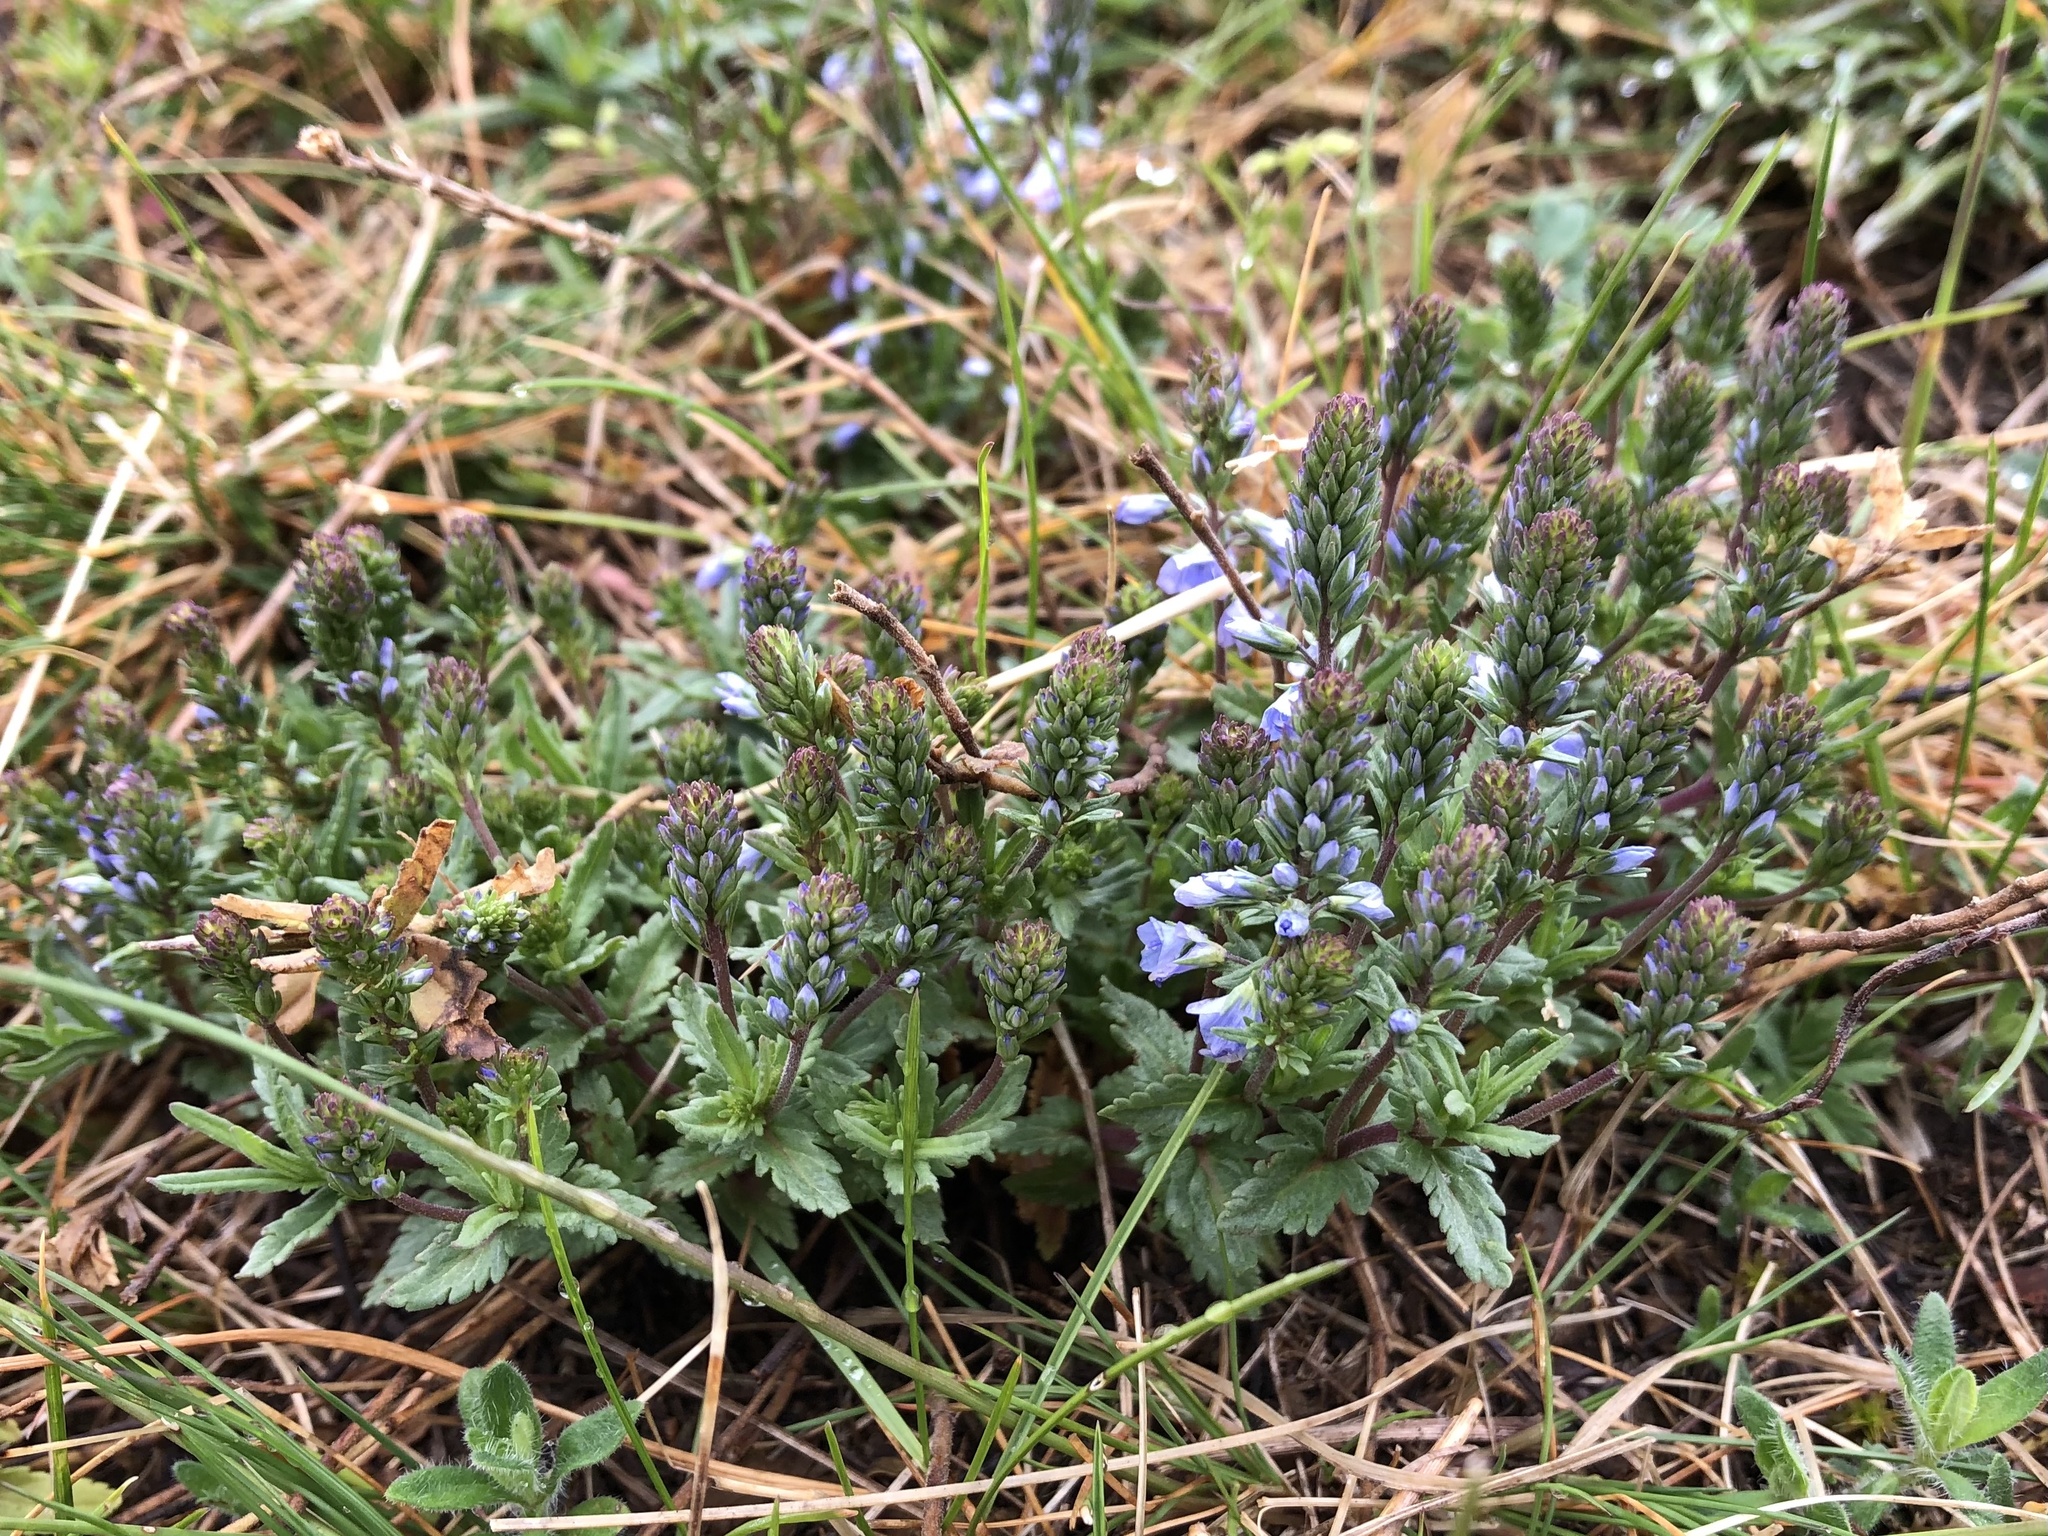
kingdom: Plantae
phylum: Tracheophyta
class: Magnoliopsida
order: Lamiales
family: Plantaginaceae
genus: Veronica
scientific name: Veronica prostrata
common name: Prostrate speedwell
